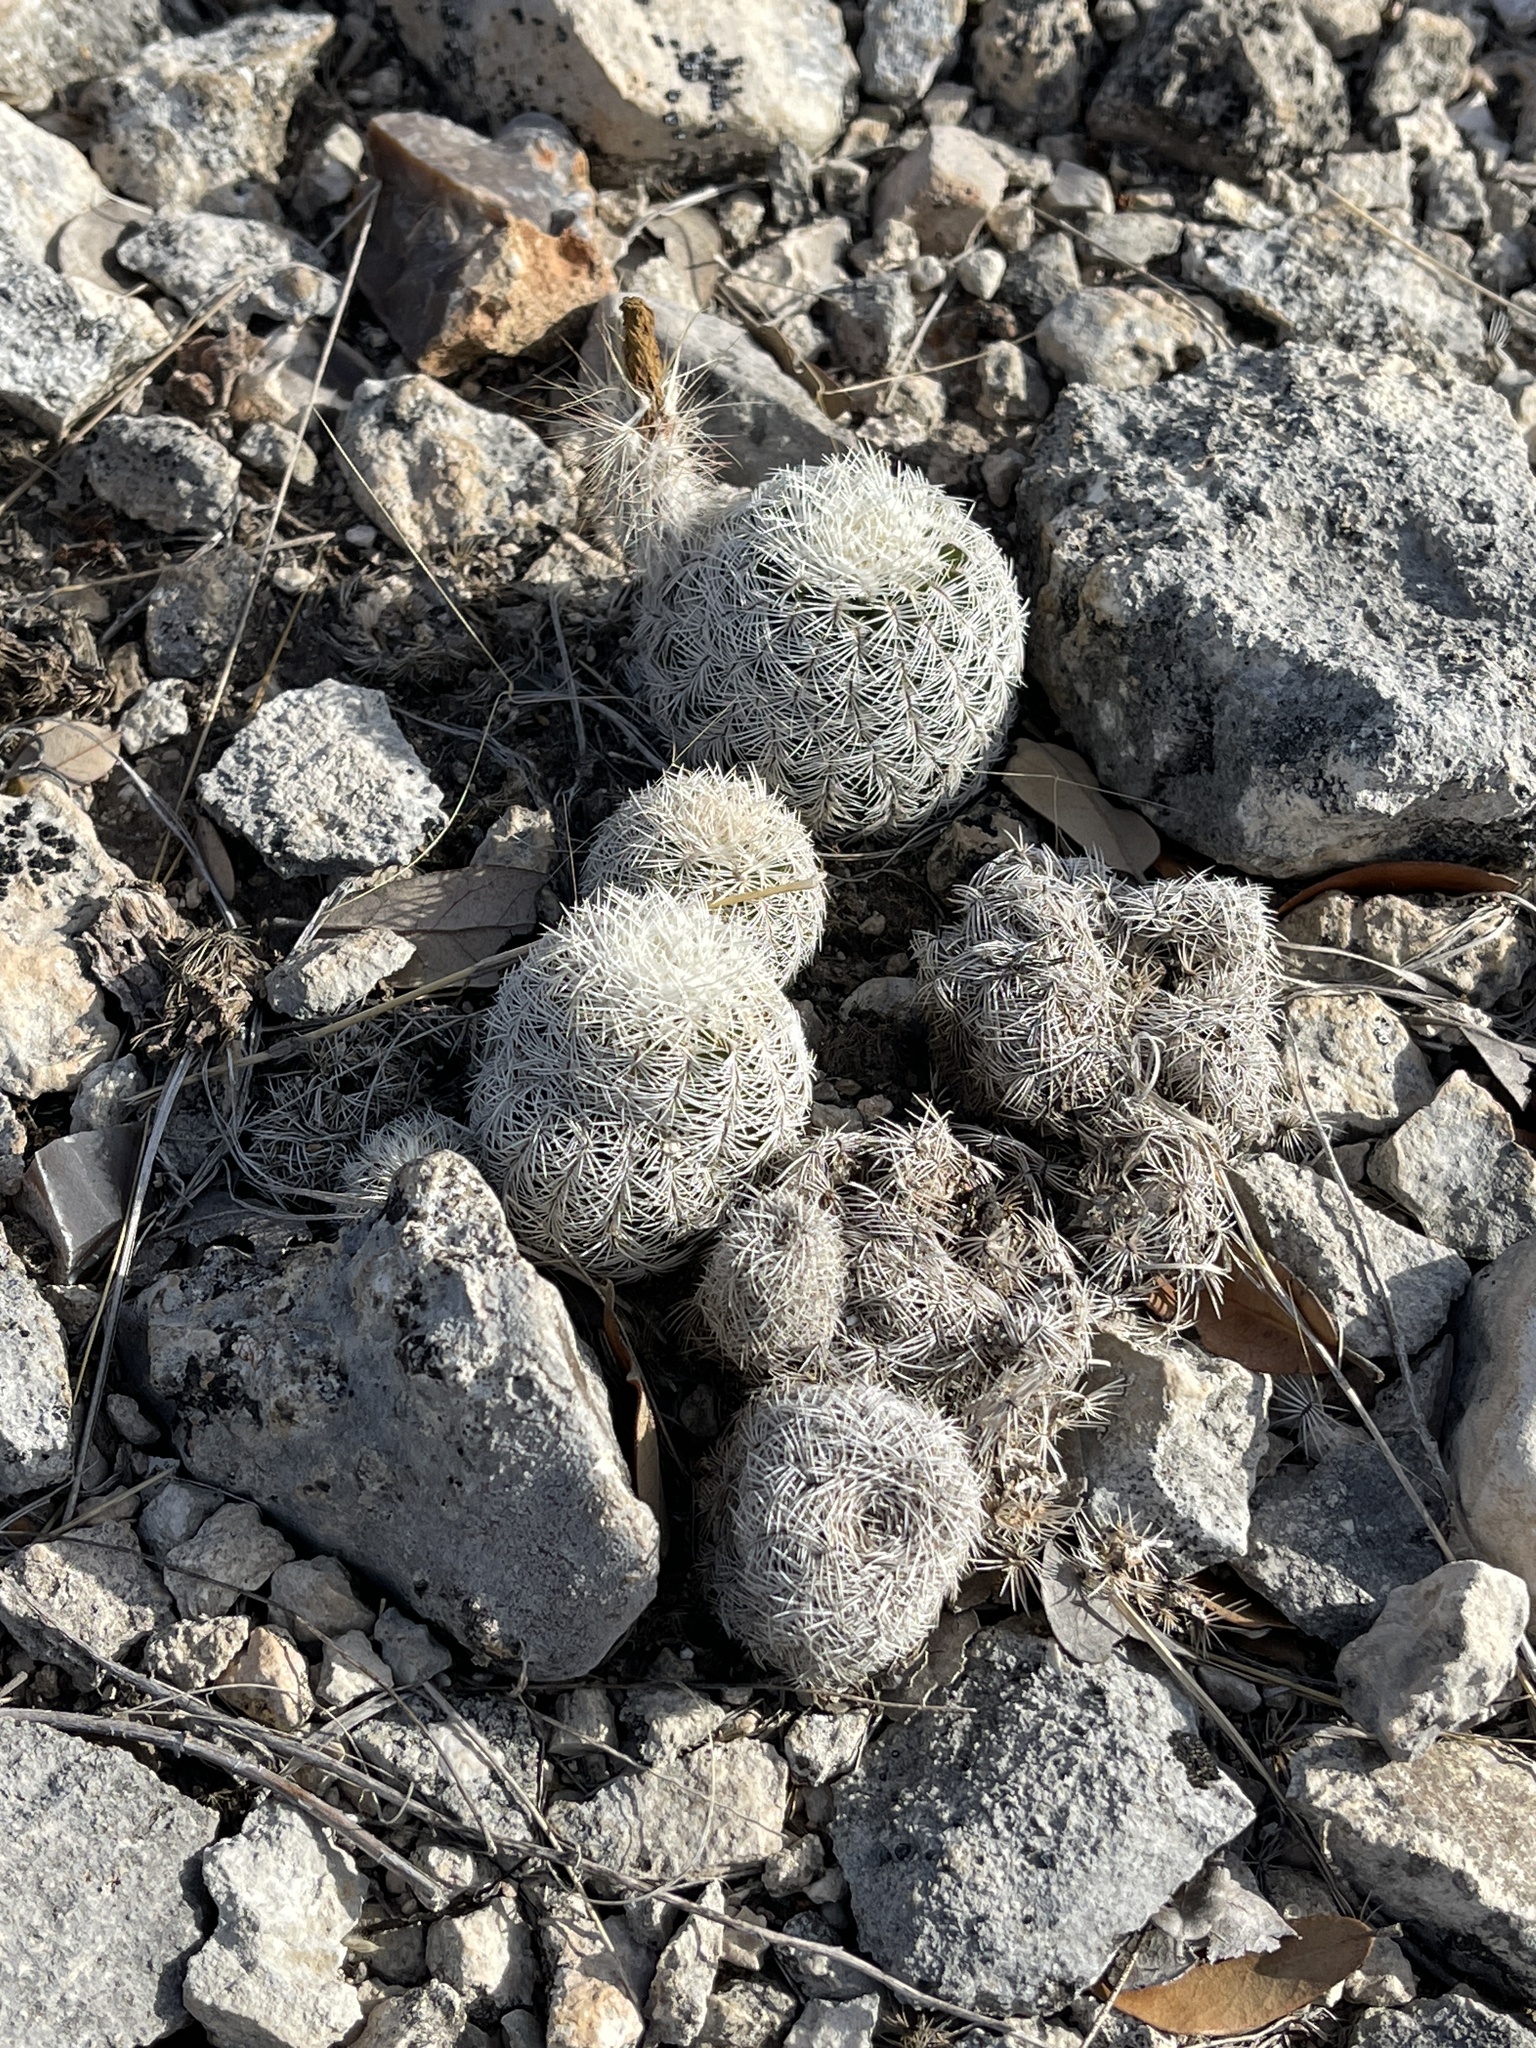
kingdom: Plantae
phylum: Tracheophyta
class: Magnoliopsida
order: Caryophyllales
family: Cactaceae
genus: Echinocereus
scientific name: Echinocereus reichenbachii
